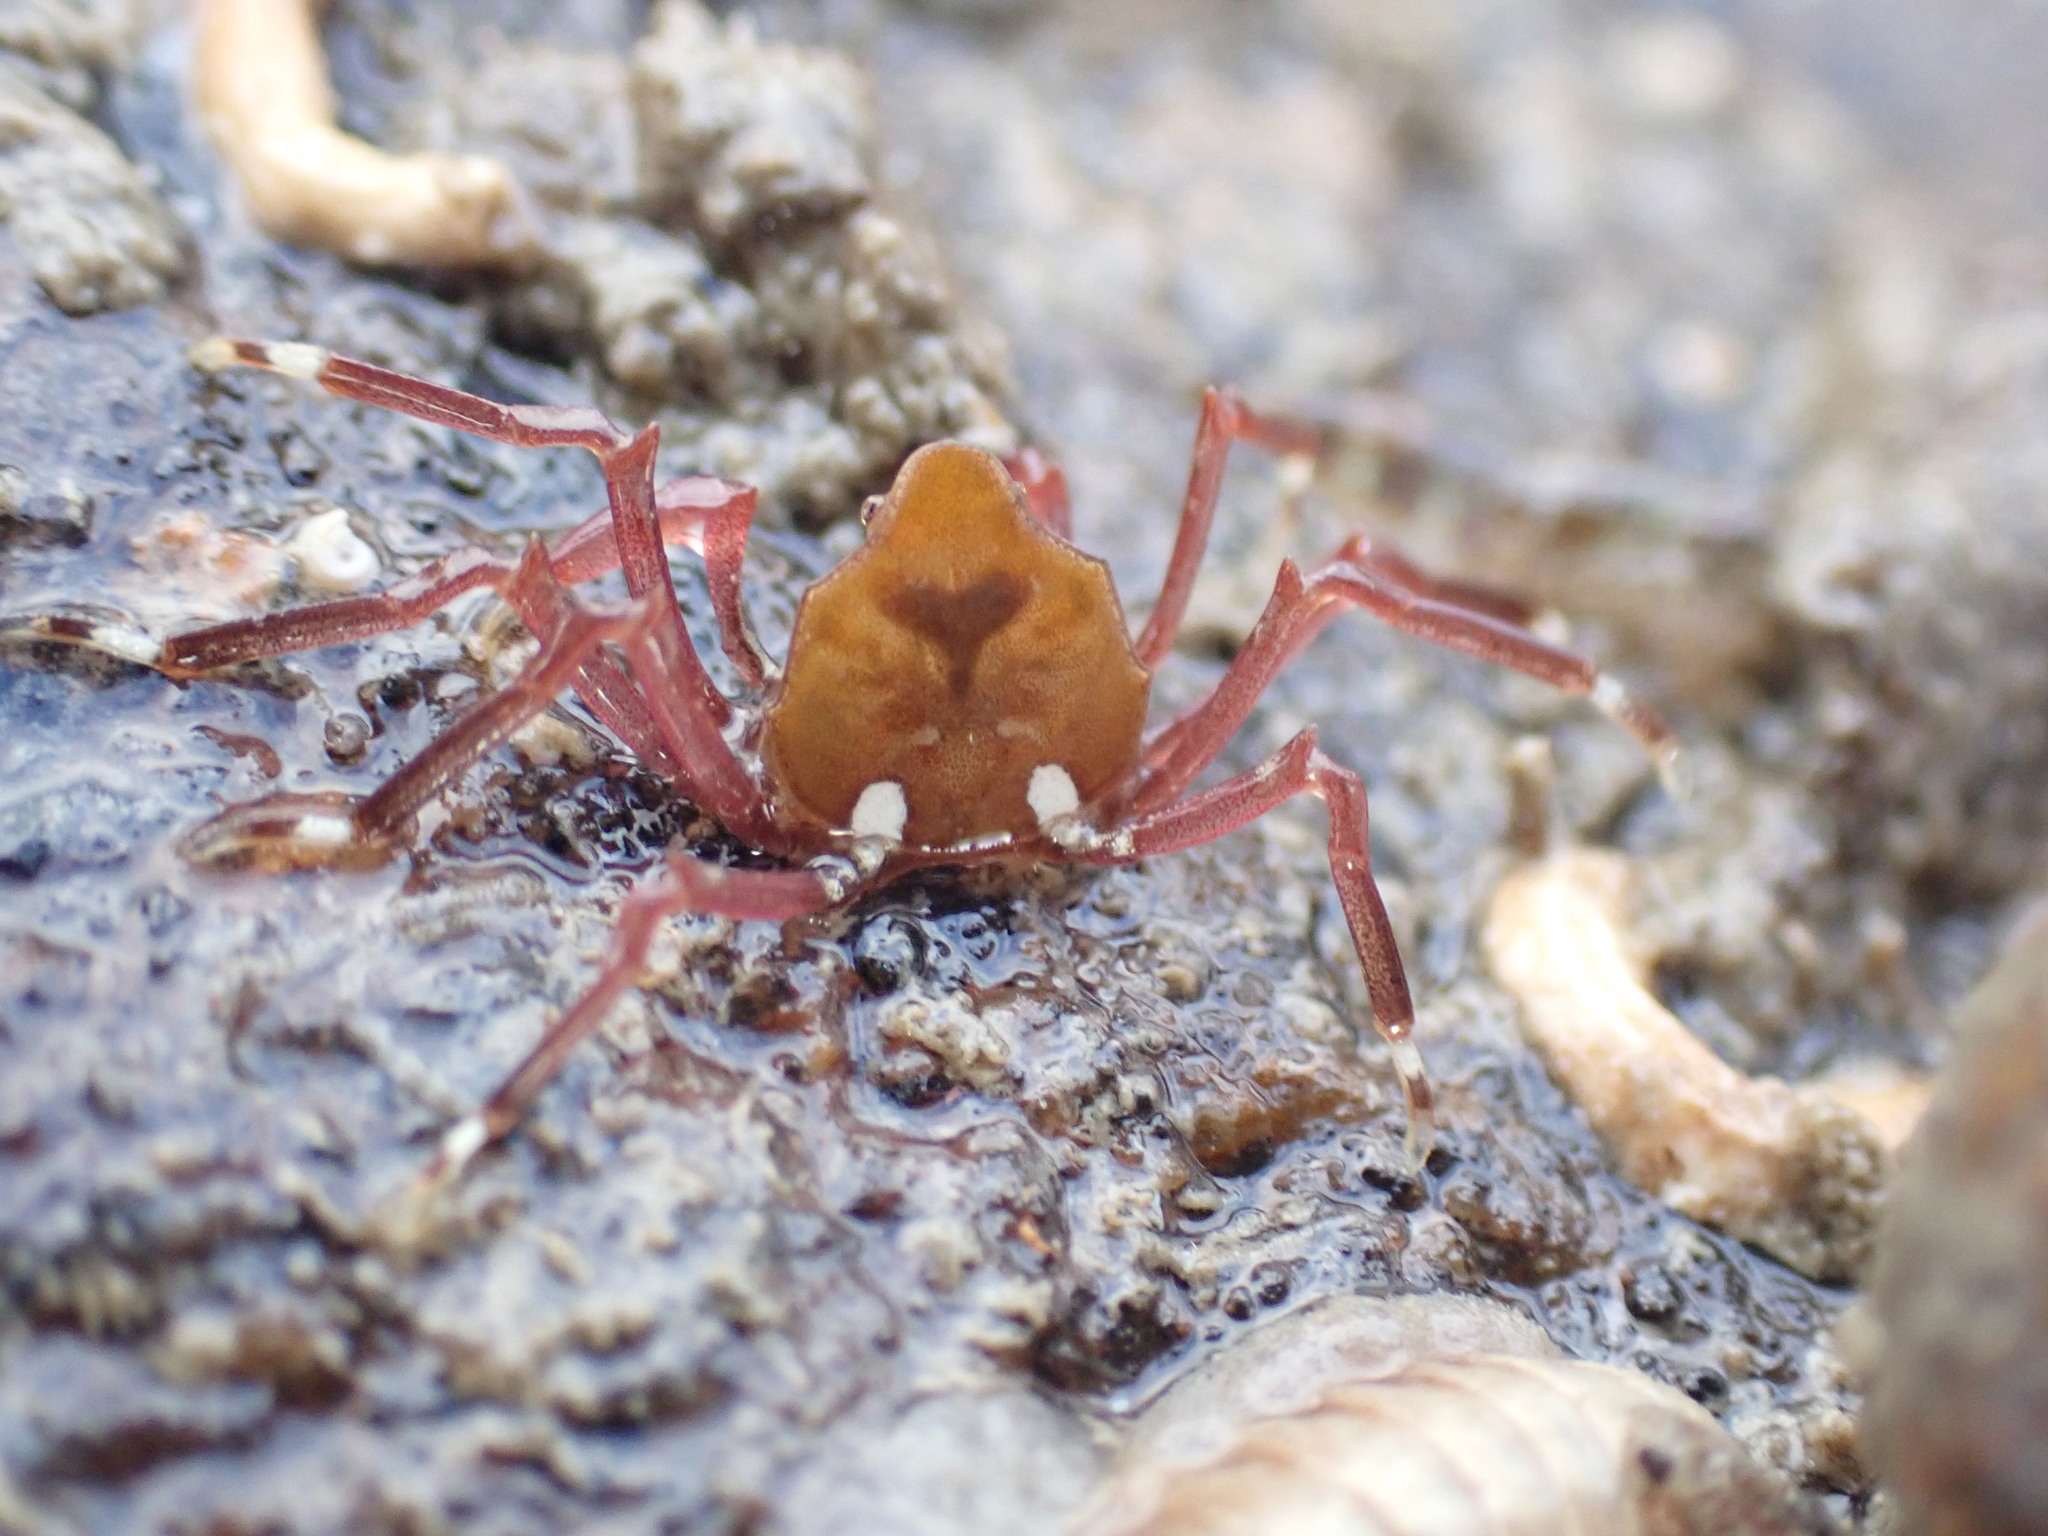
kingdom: Animalia
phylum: Arthropoda
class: Malacostraca
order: Decapoda
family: Hymenosomatidae
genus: Elamena
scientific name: Elamena producta
